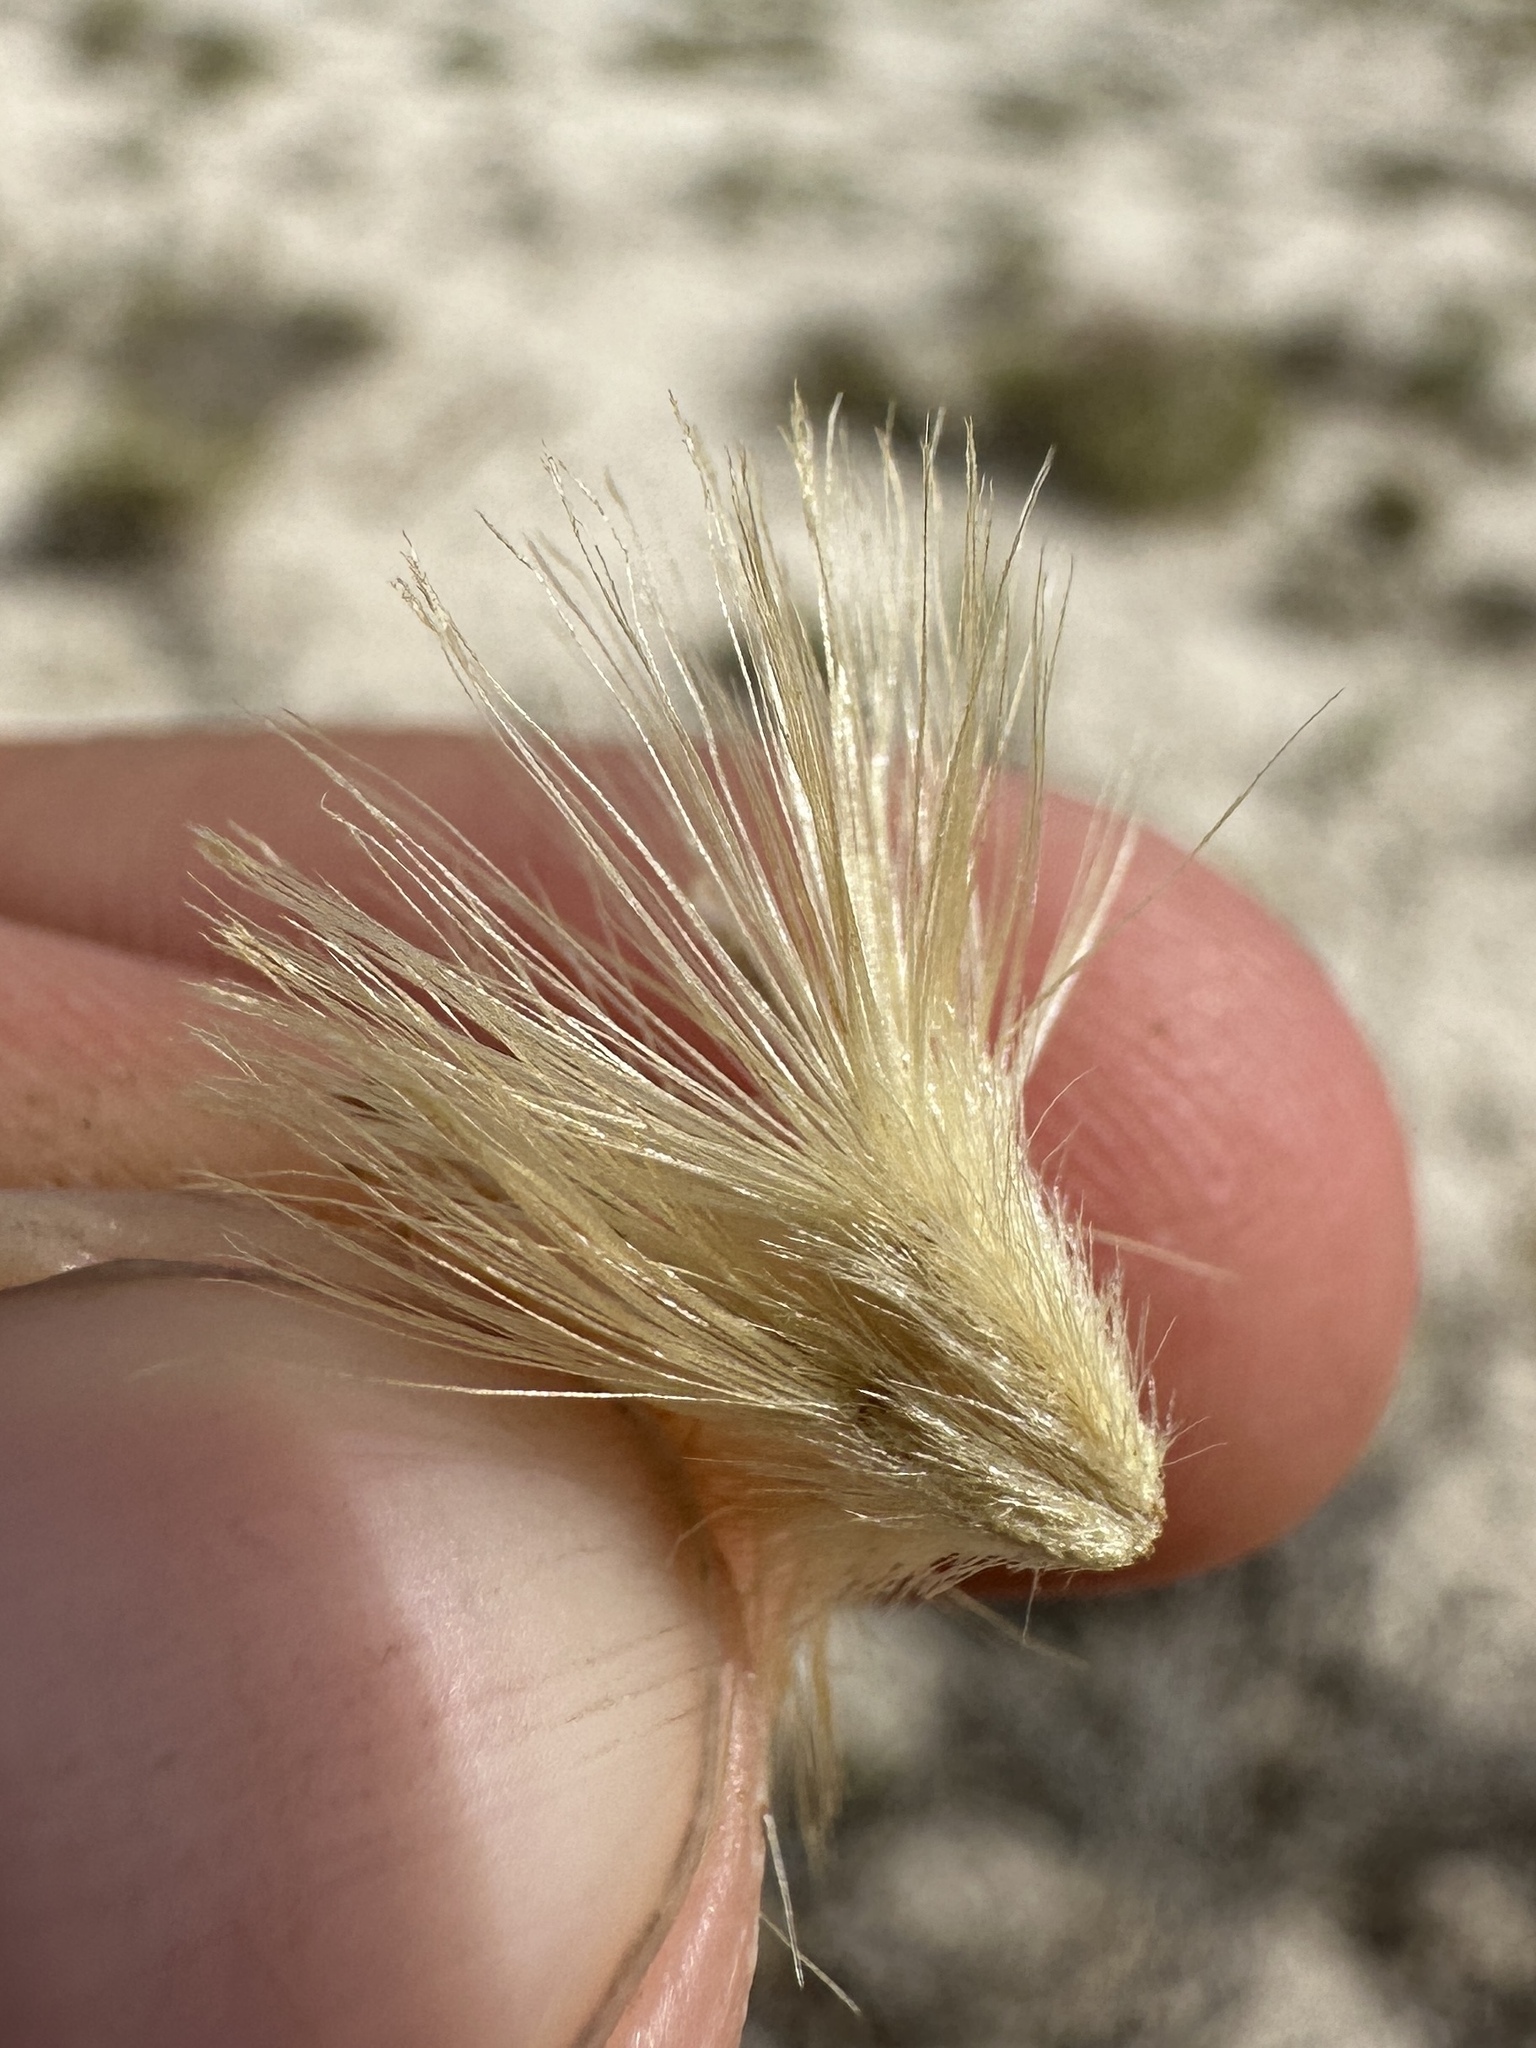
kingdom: Plantae
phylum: Tracheophyta
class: Magnoliopsida
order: Asterales
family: Asteraceae
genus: Tetradymia
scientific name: Tetradymia canescens
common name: Spineless horsebrush
